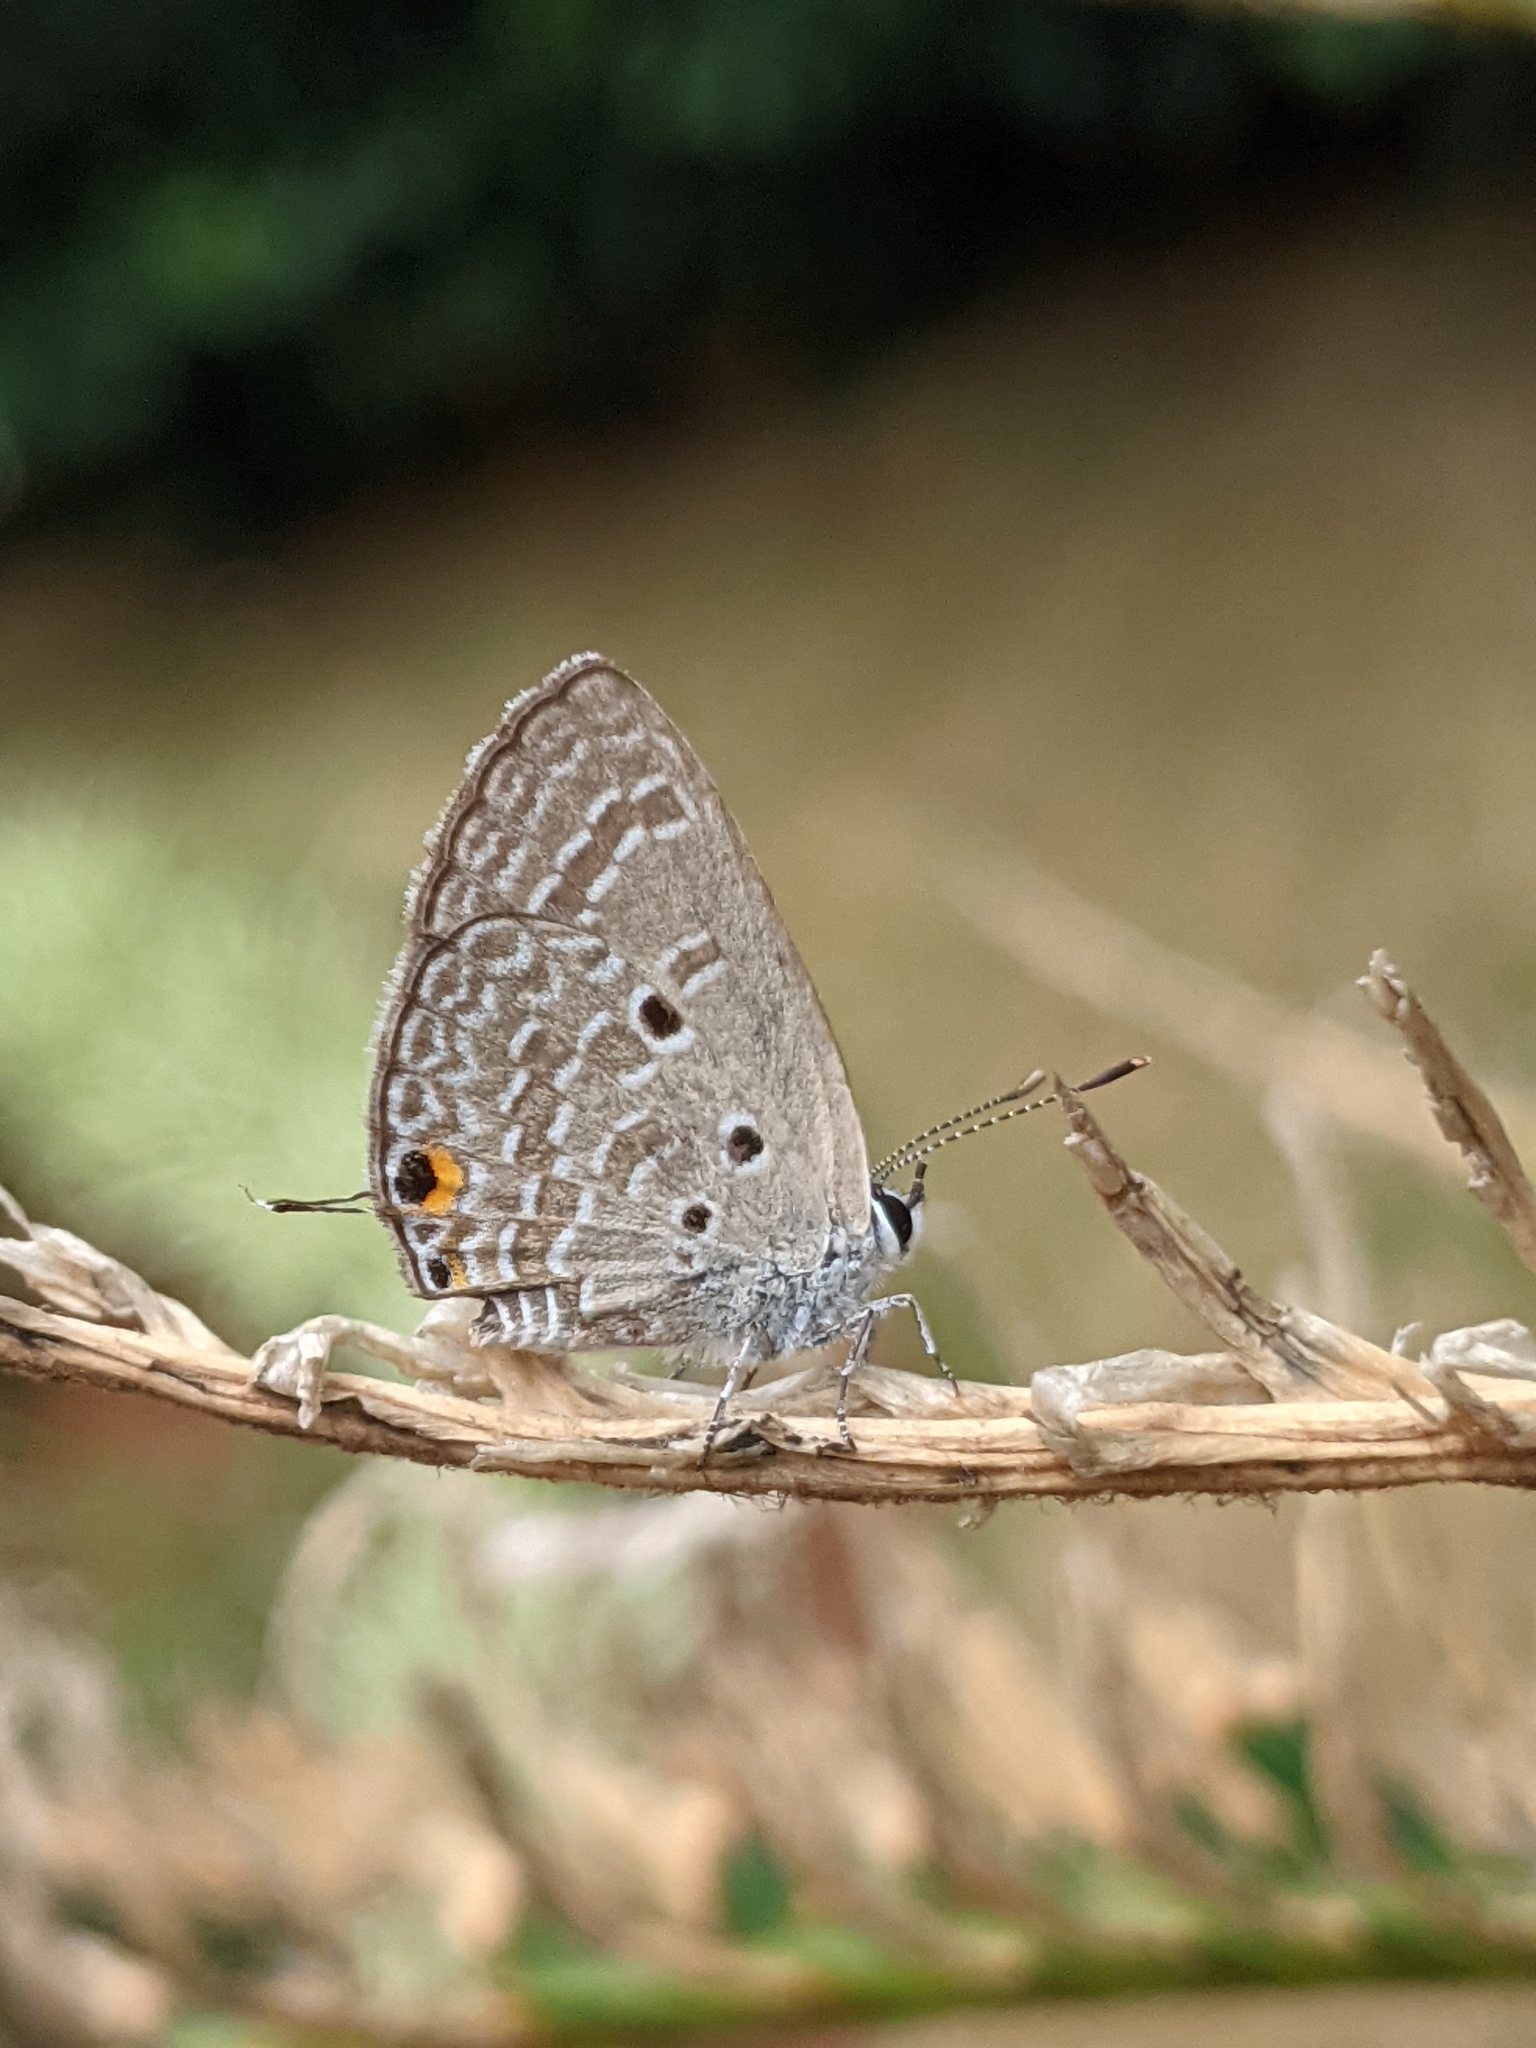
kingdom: Animalia
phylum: Arthropoda
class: Insecta
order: Lepidoptera
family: Lycaenidae
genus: Luthrodes
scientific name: Luthrodes pandava
